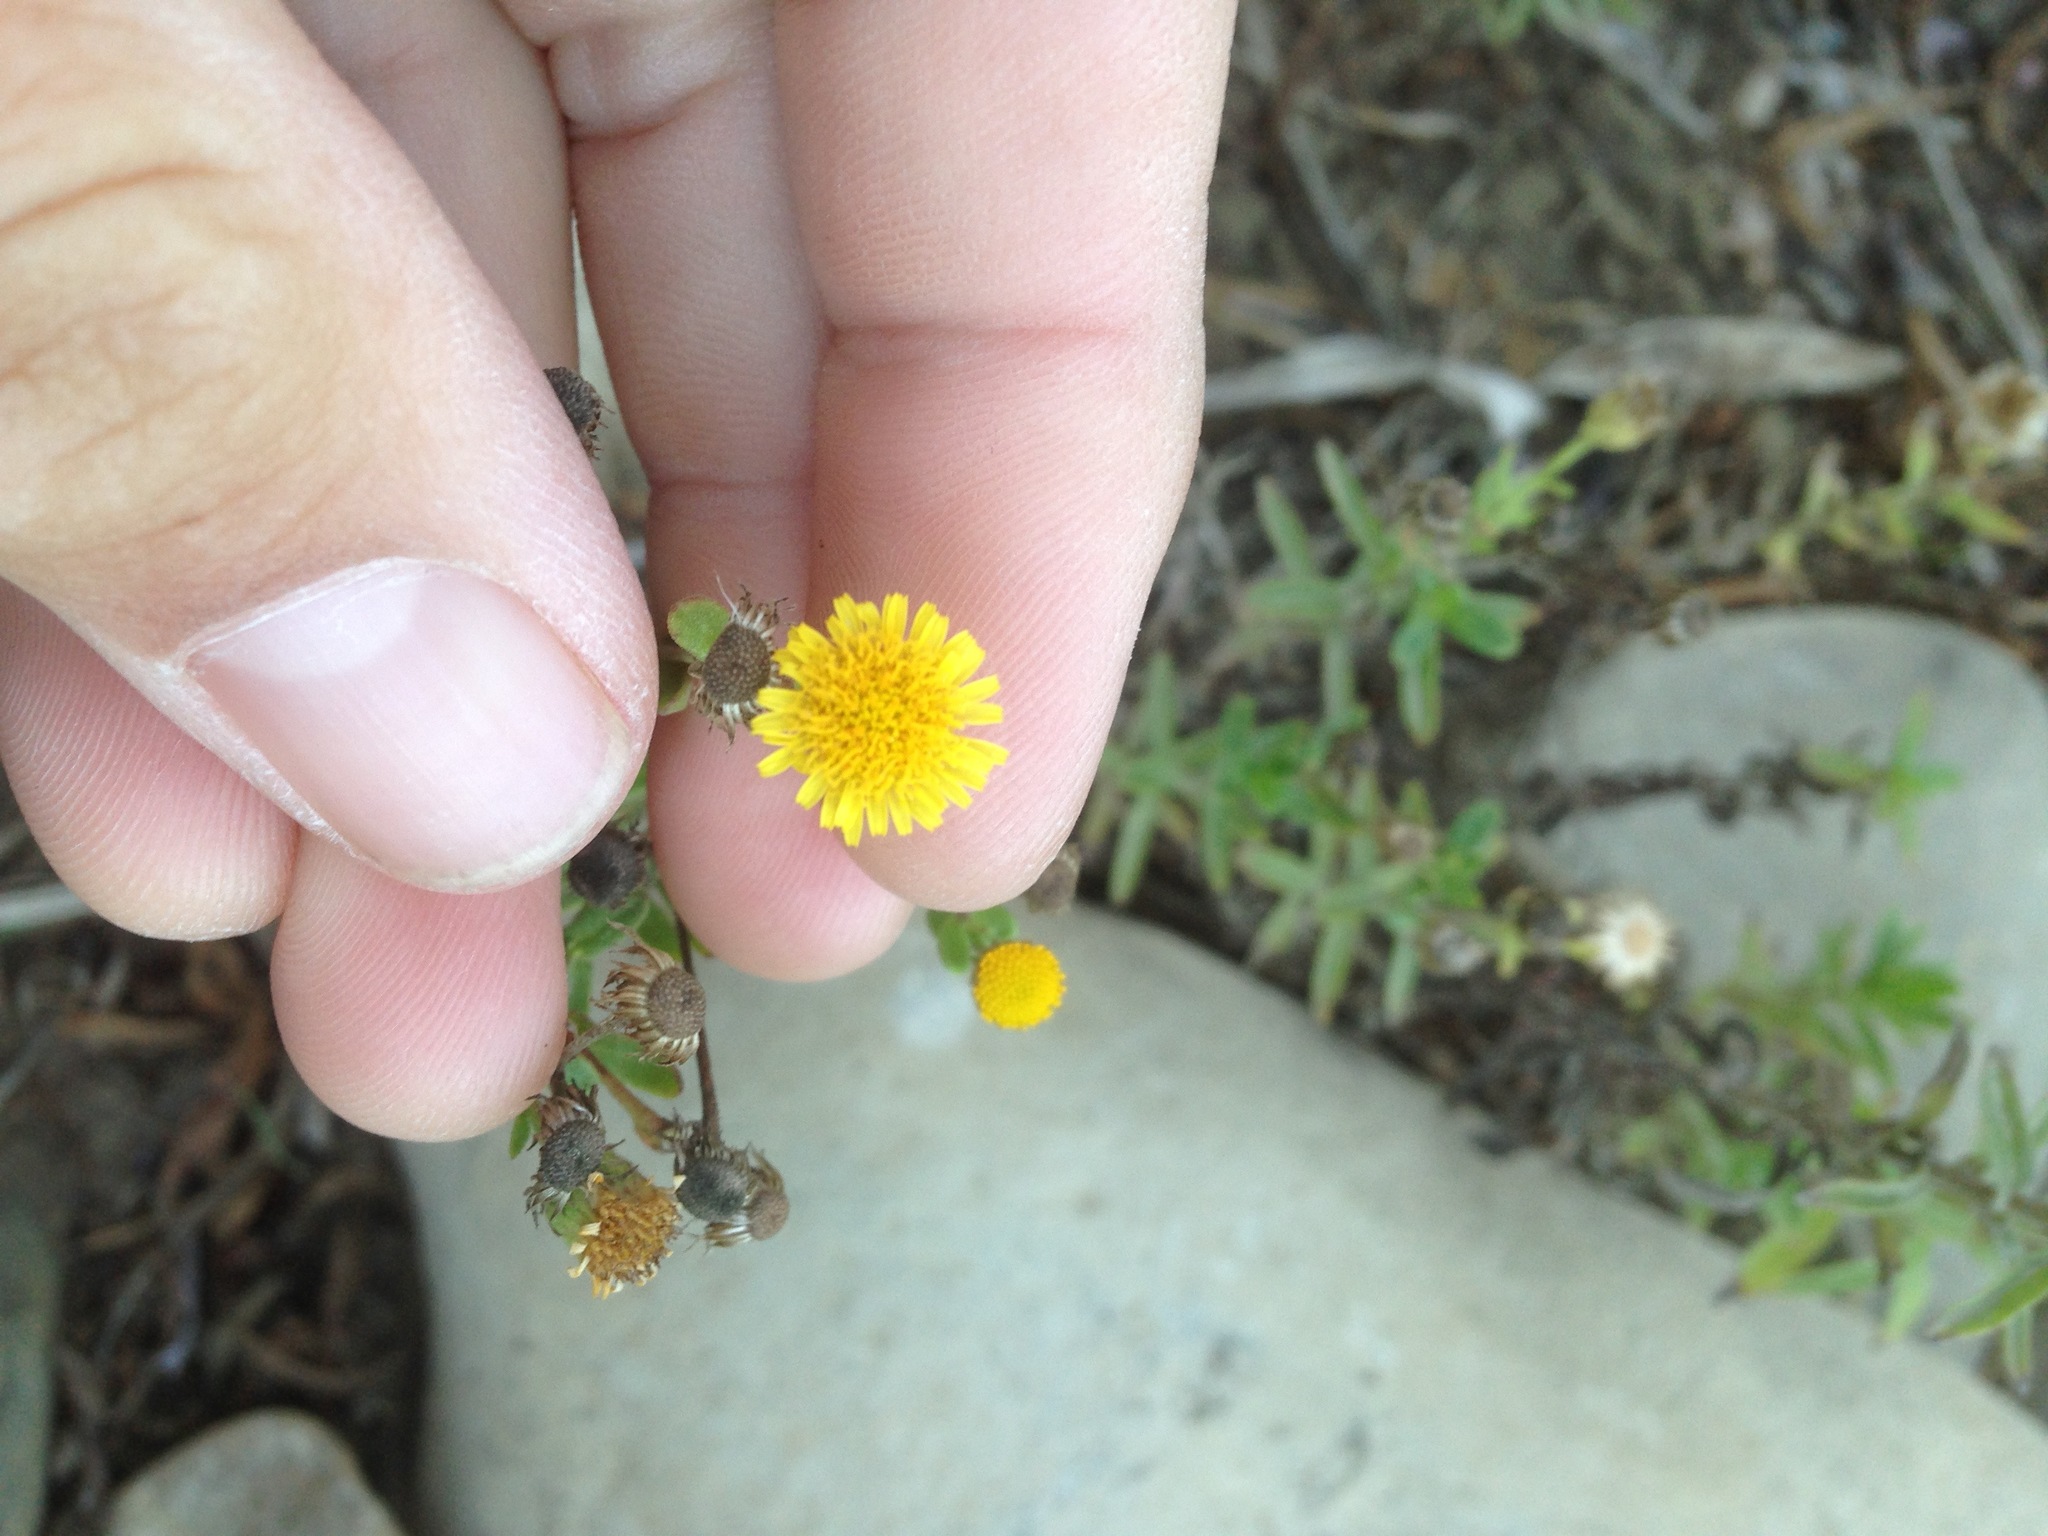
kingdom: Plantae
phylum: Tracheophyta
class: Magnoliopsida
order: Asterales
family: Asteraceae
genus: Pulicaria
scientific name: Pulicaria paludosa
